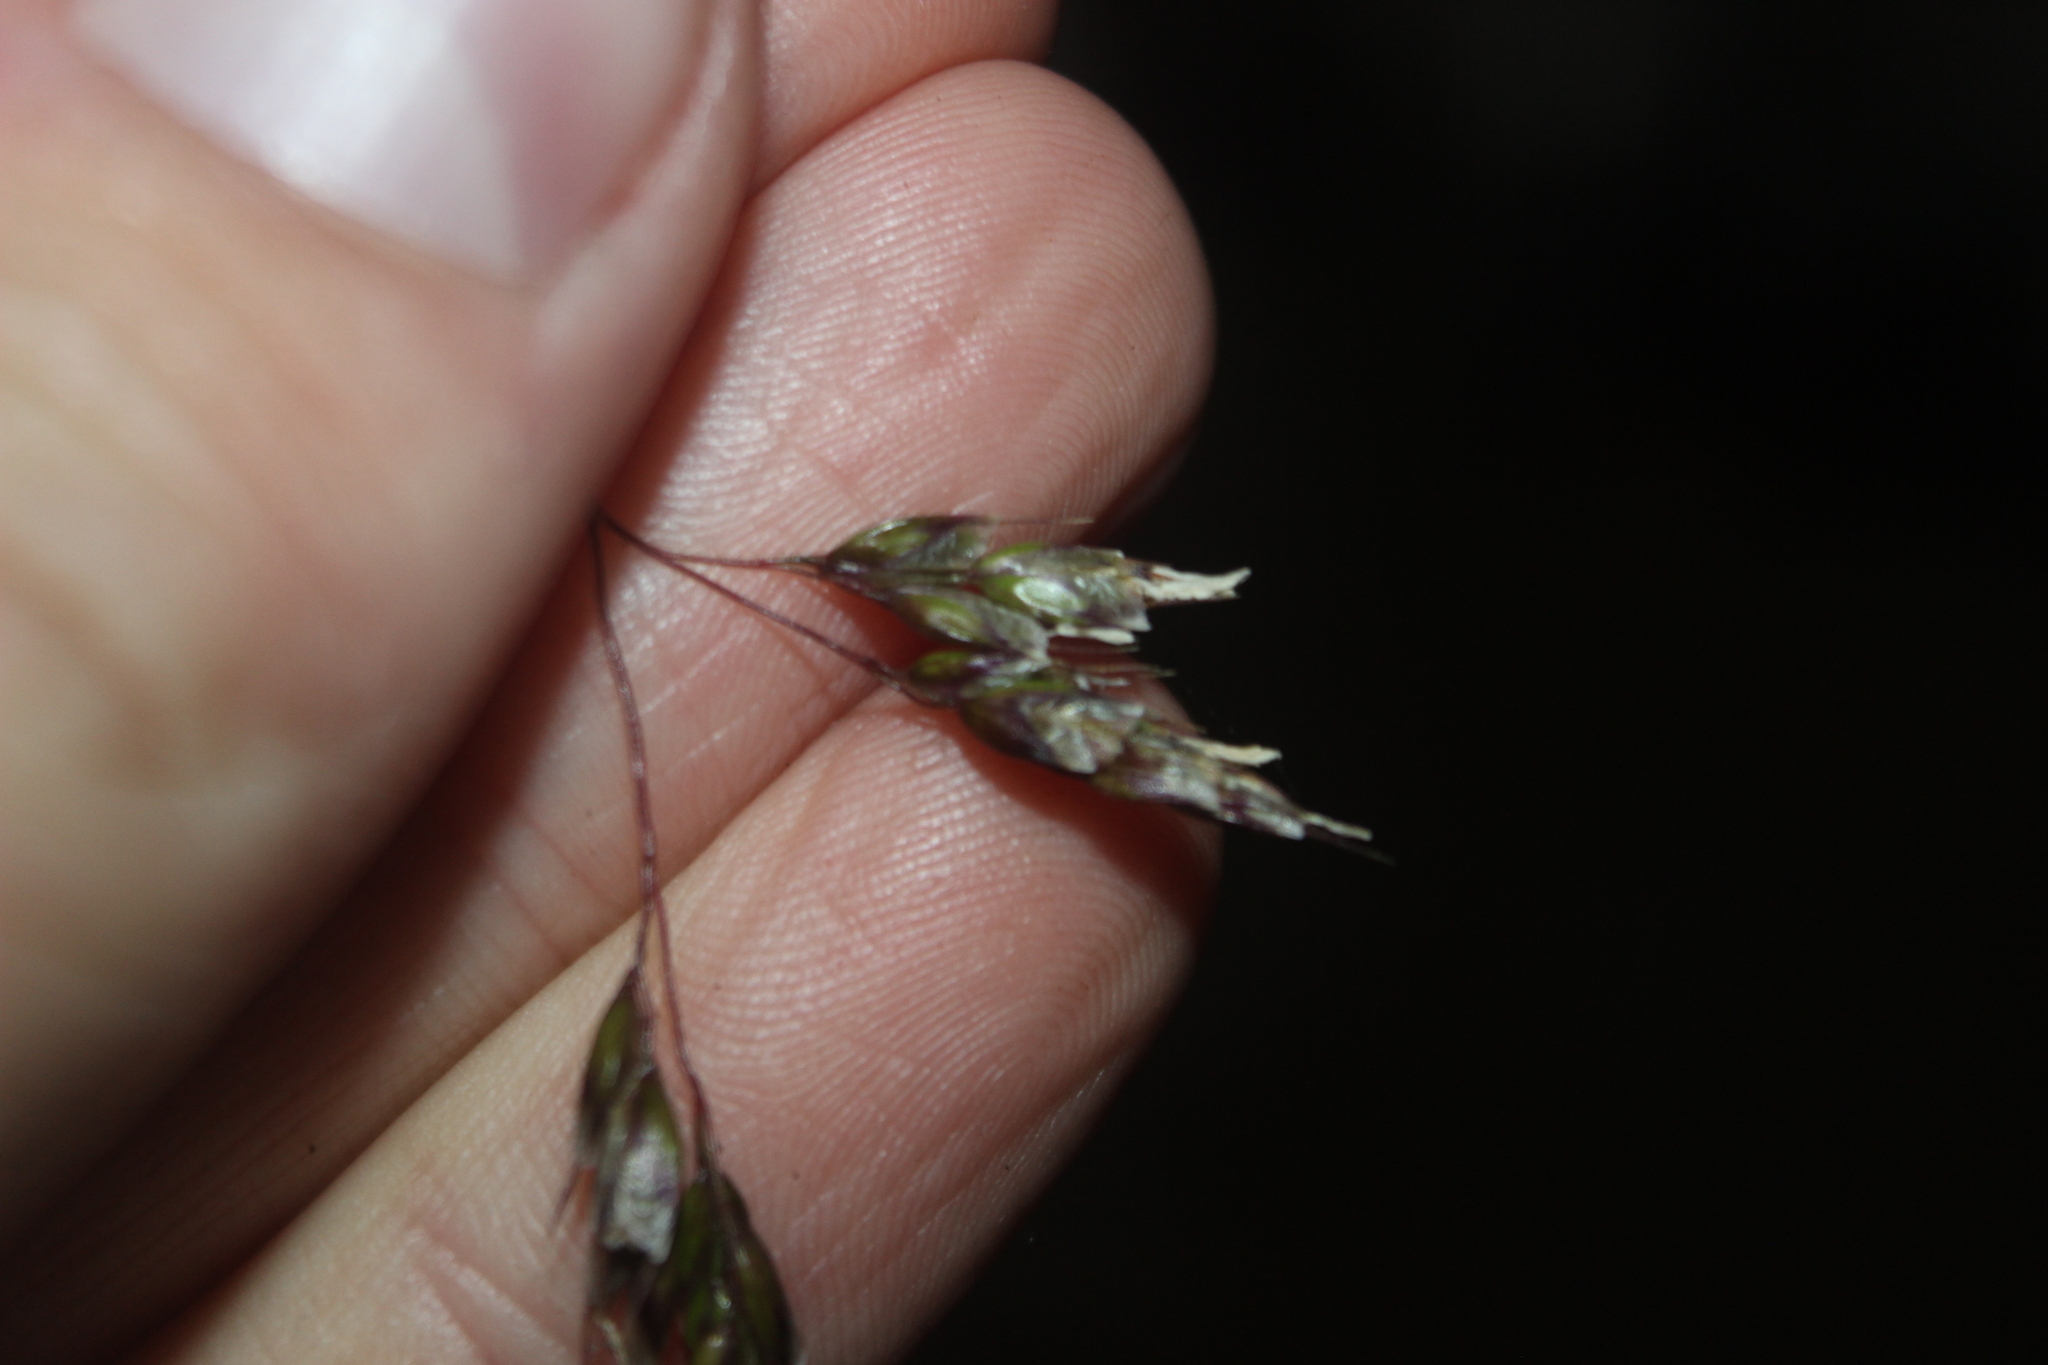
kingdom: Plantae
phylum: Tracheophyta
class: Liliopsida
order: Poales
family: Poaceae
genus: Anthoxanthum
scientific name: Anthoxanthum redolens
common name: Sweet holy grass
